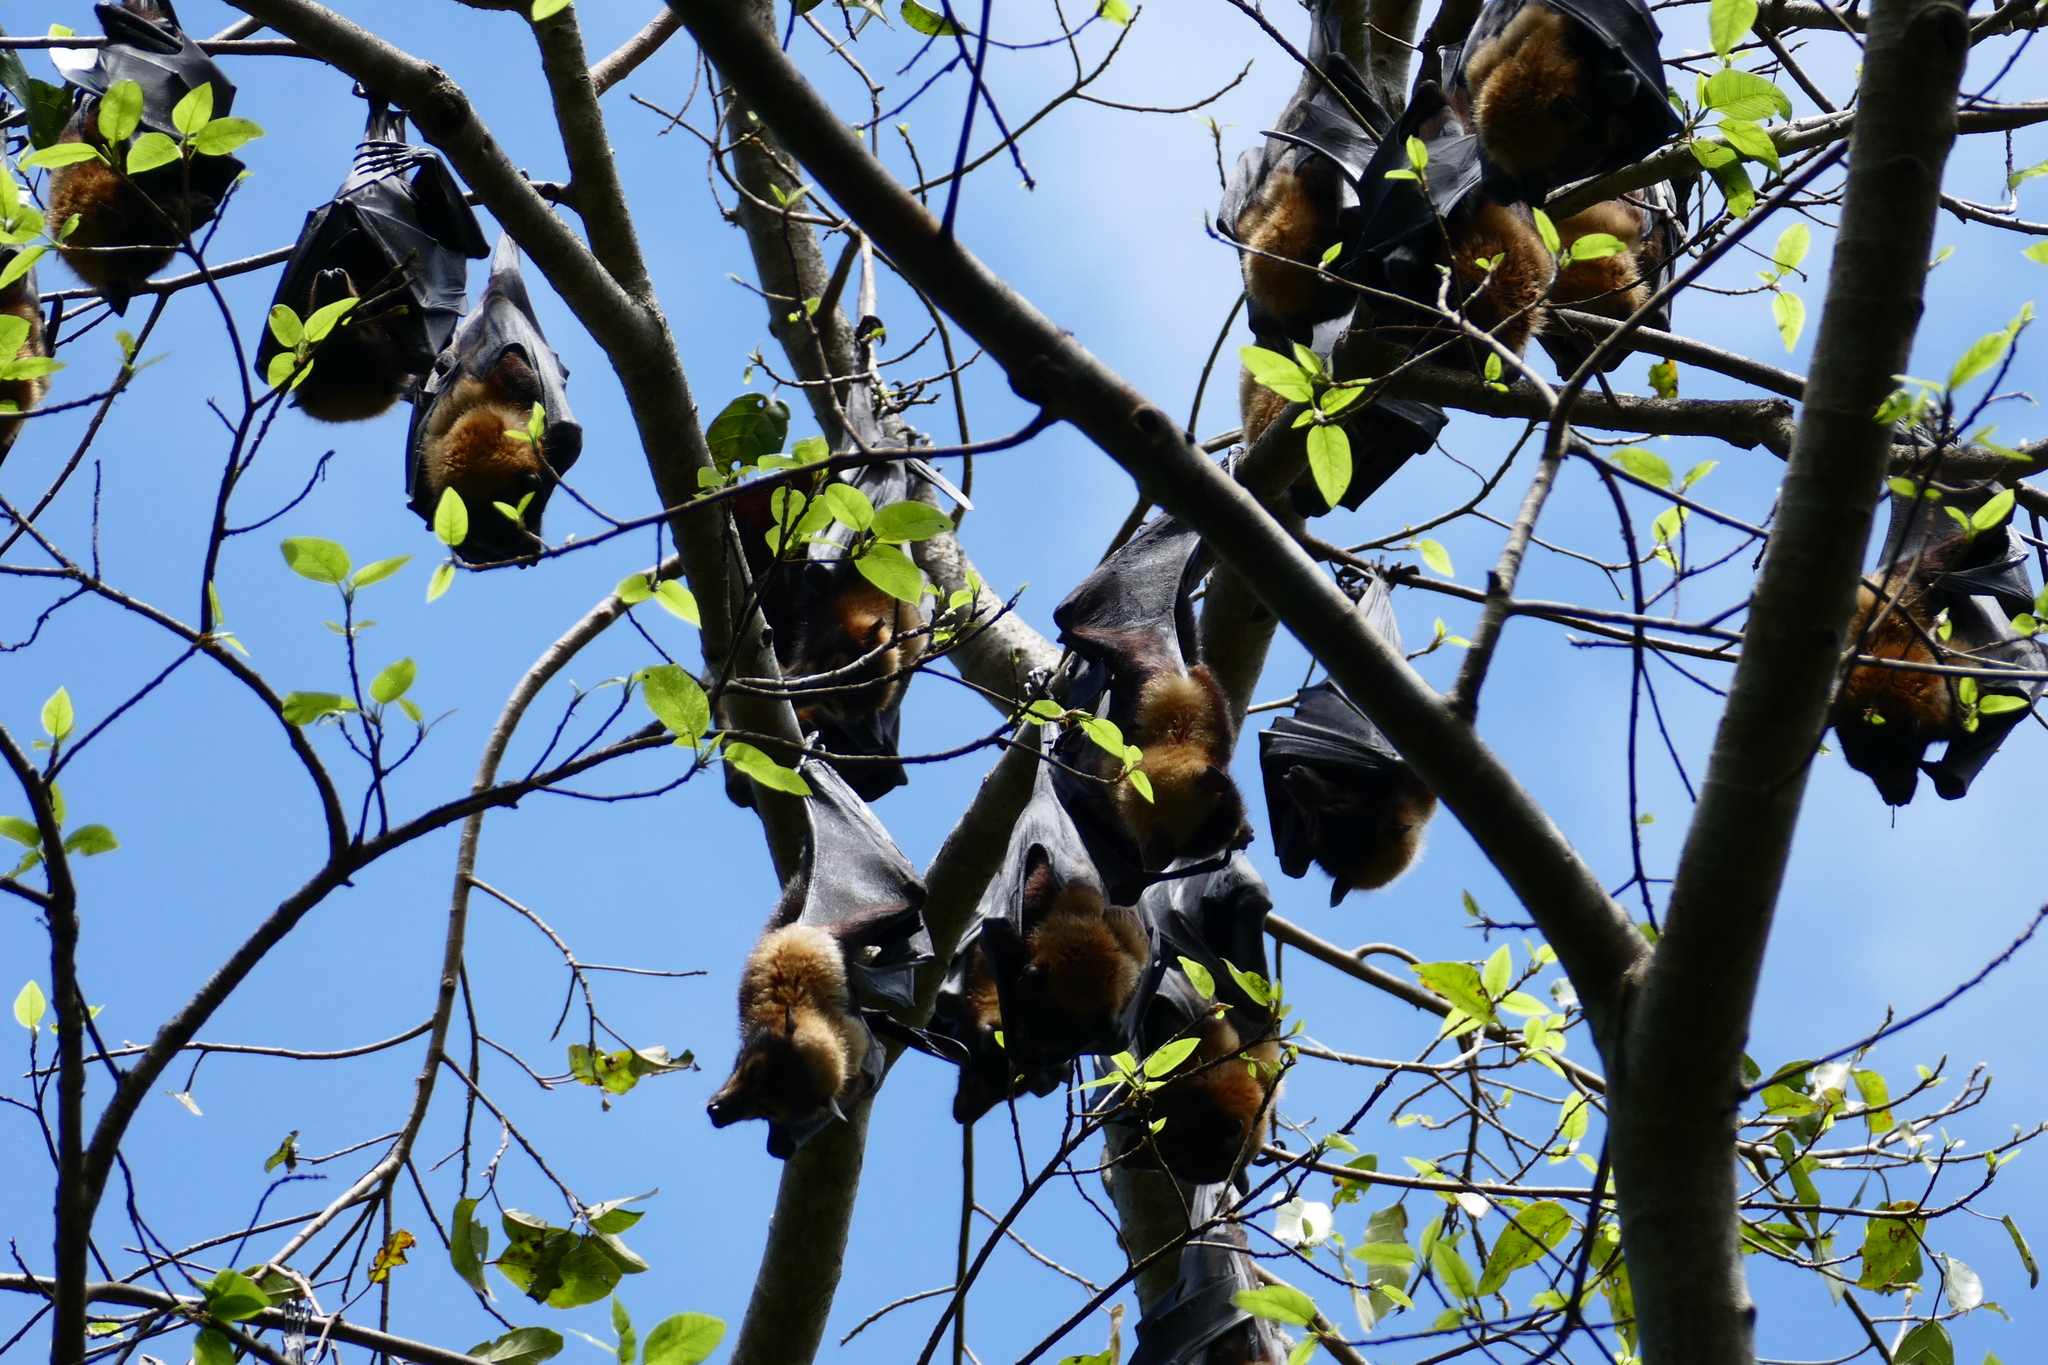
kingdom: Animalia
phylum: Chordata
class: Mammalia
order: Chiroptera
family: Pteropodidae
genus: Pteropus
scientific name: Pteropus conspicillatus
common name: Spectacled flying fox
